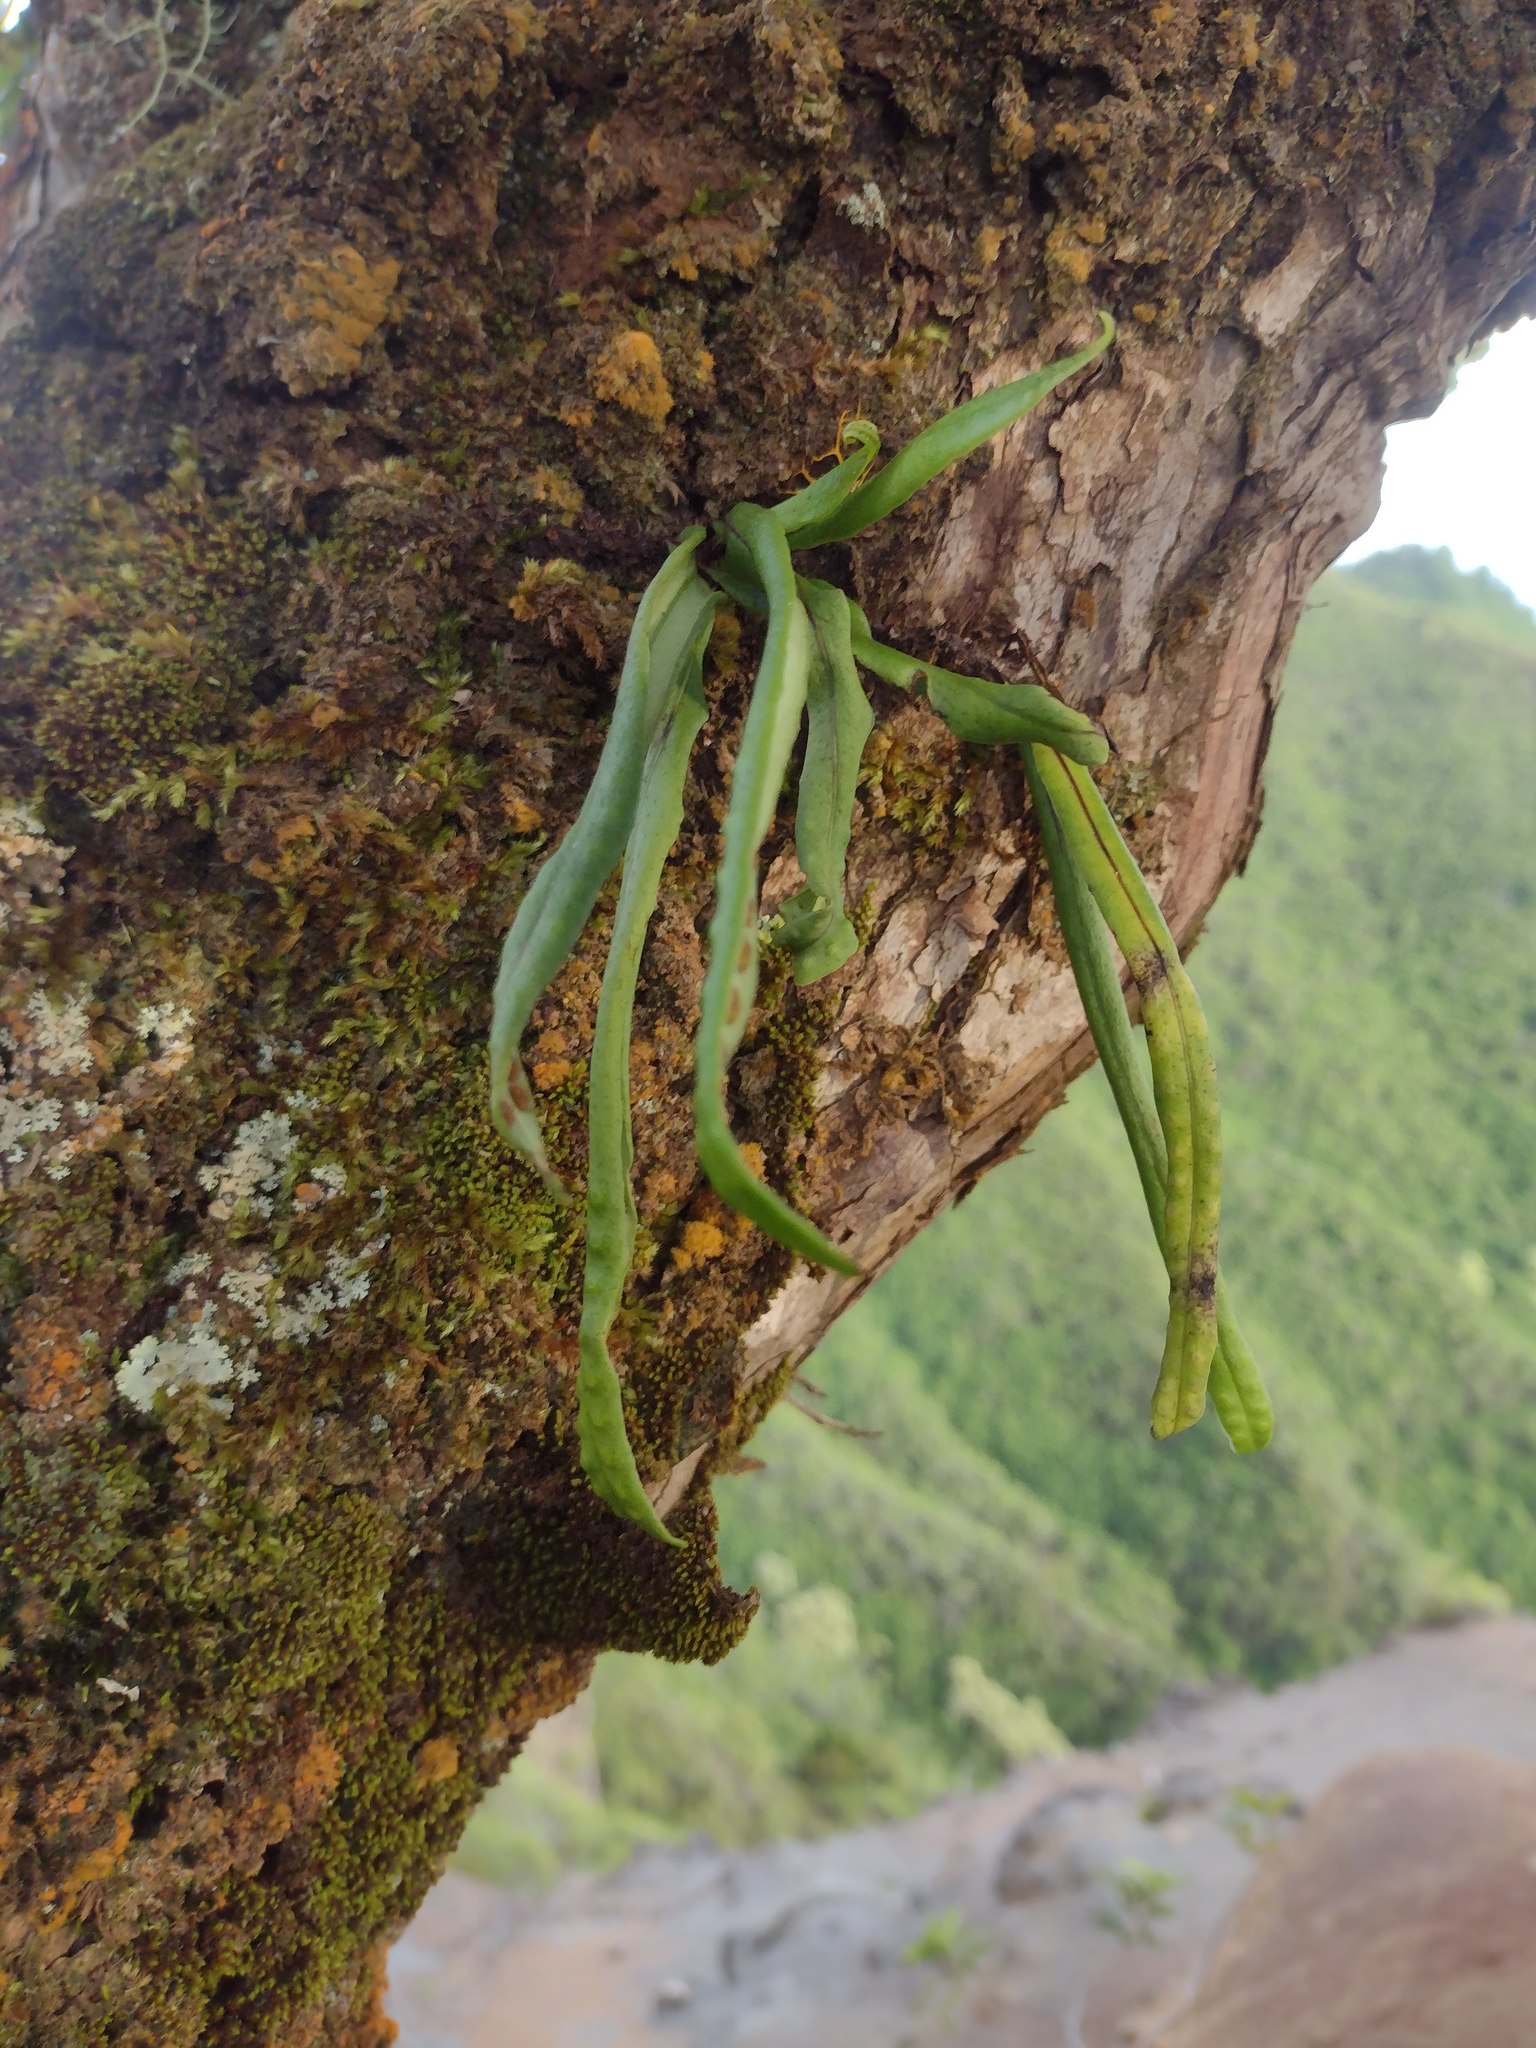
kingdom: Plantae
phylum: Tracheophyta
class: Polypodiopsida
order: Polypodiales
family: Polypodiaceae
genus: Lepisorus
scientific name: Lepisorus thunbergianus
